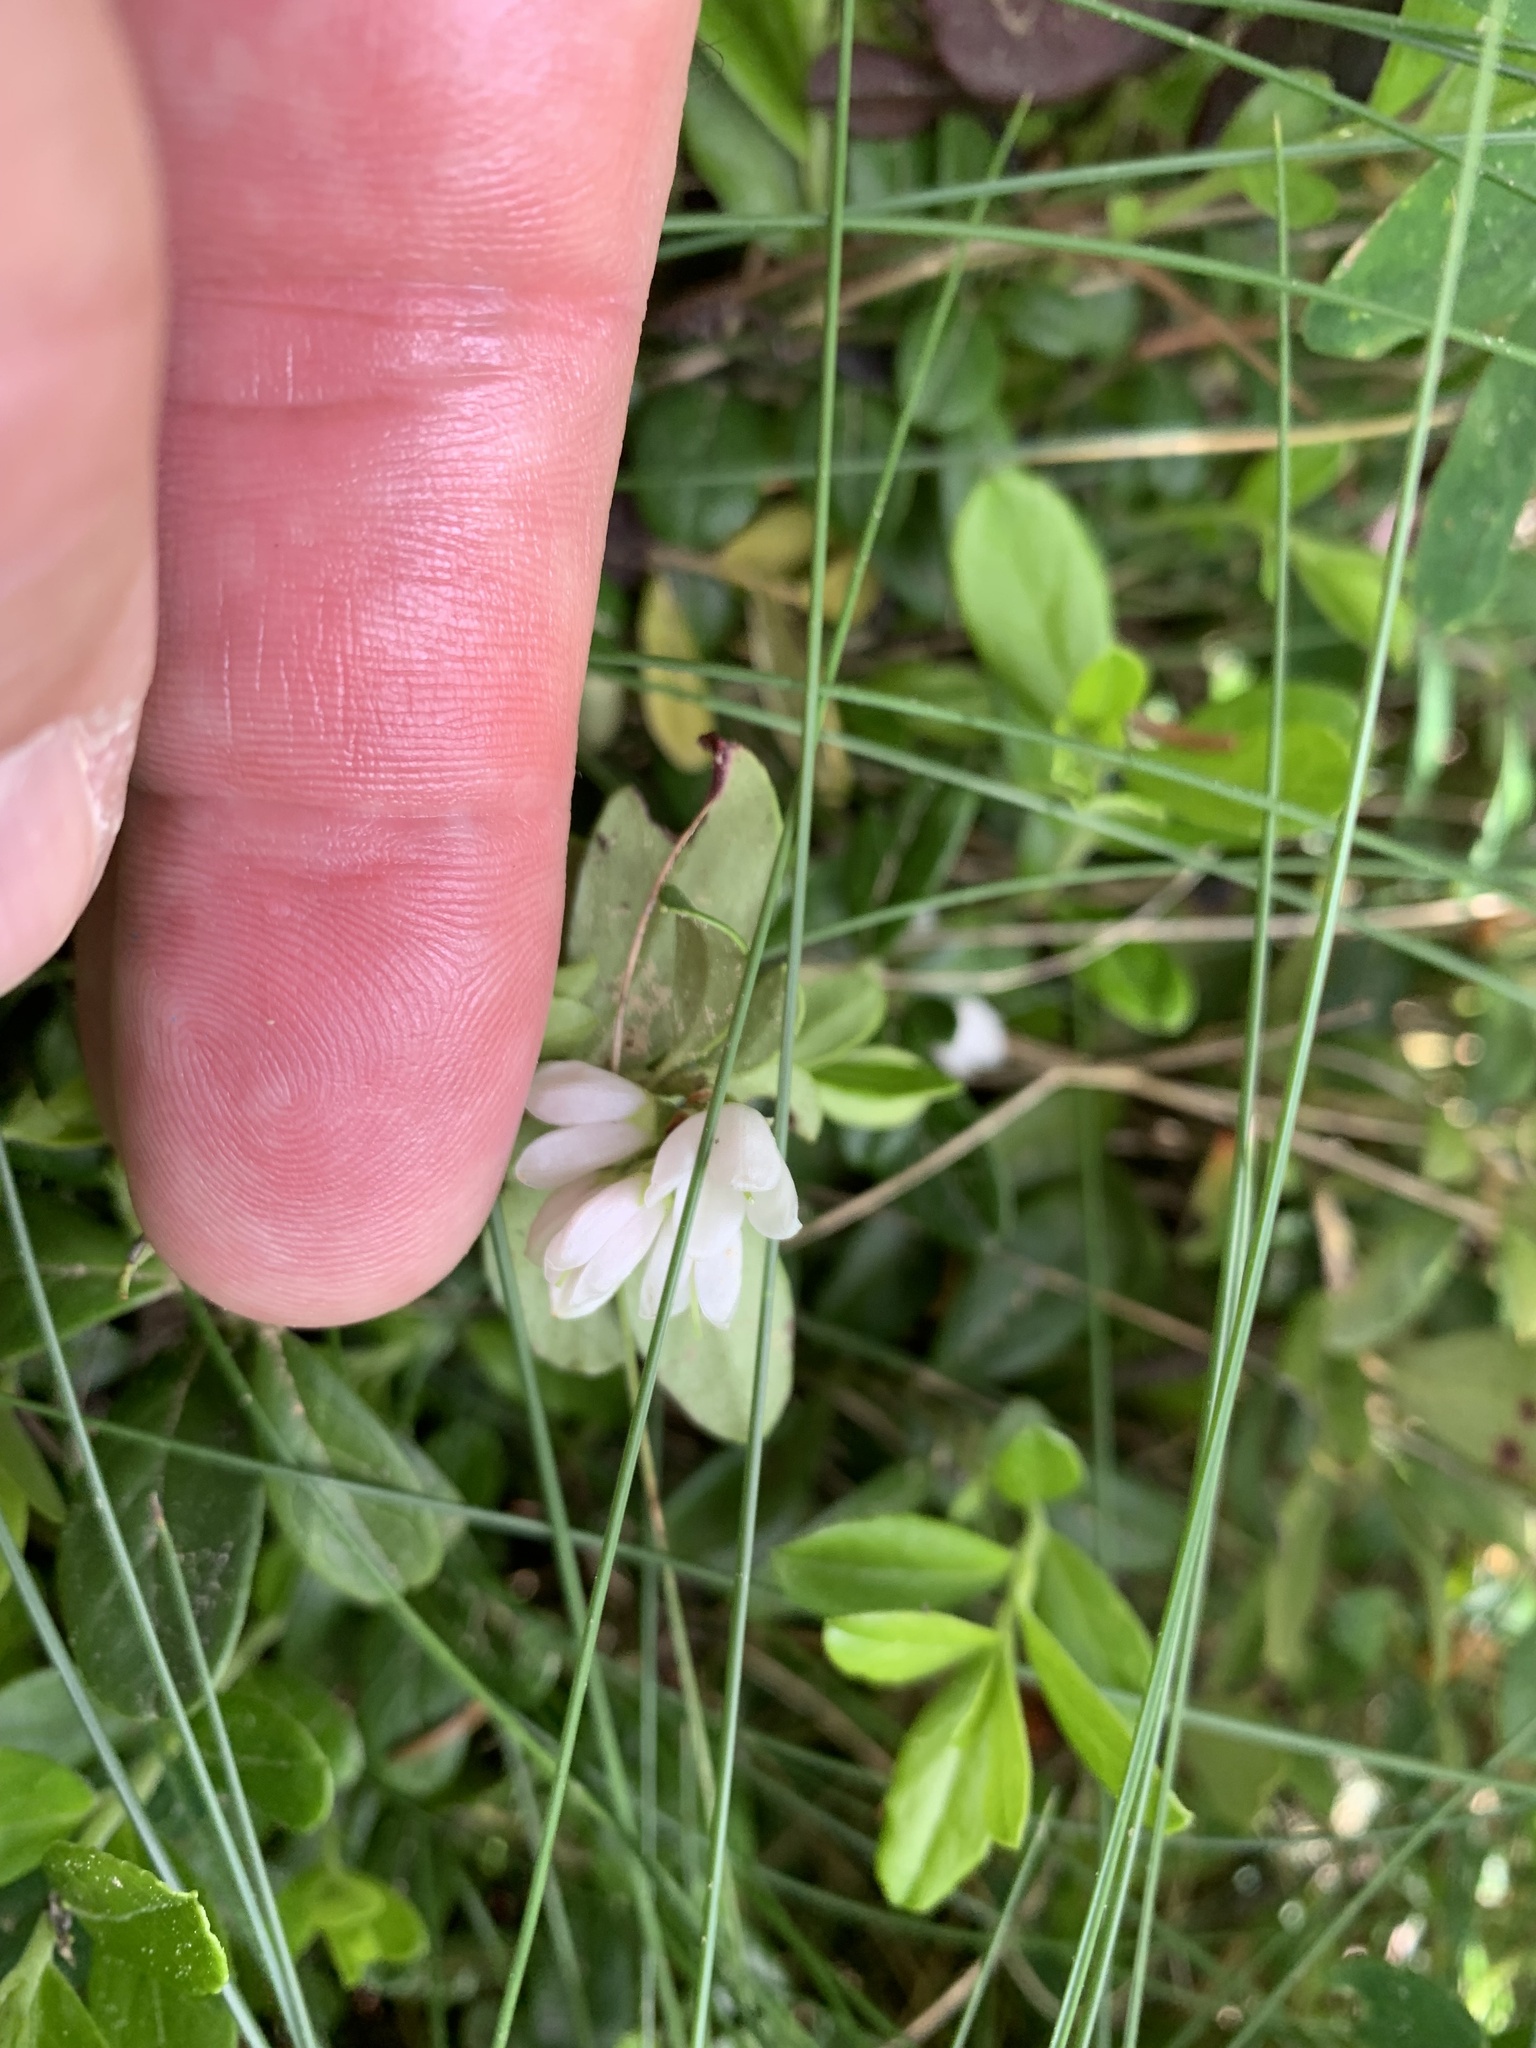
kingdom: Plantae
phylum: Tracheophyta
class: Magnoliopsida
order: Ericales
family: Ericaceae
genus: Vaccinium
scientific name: Vaccinium vitis-idaea
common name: Cowberry
